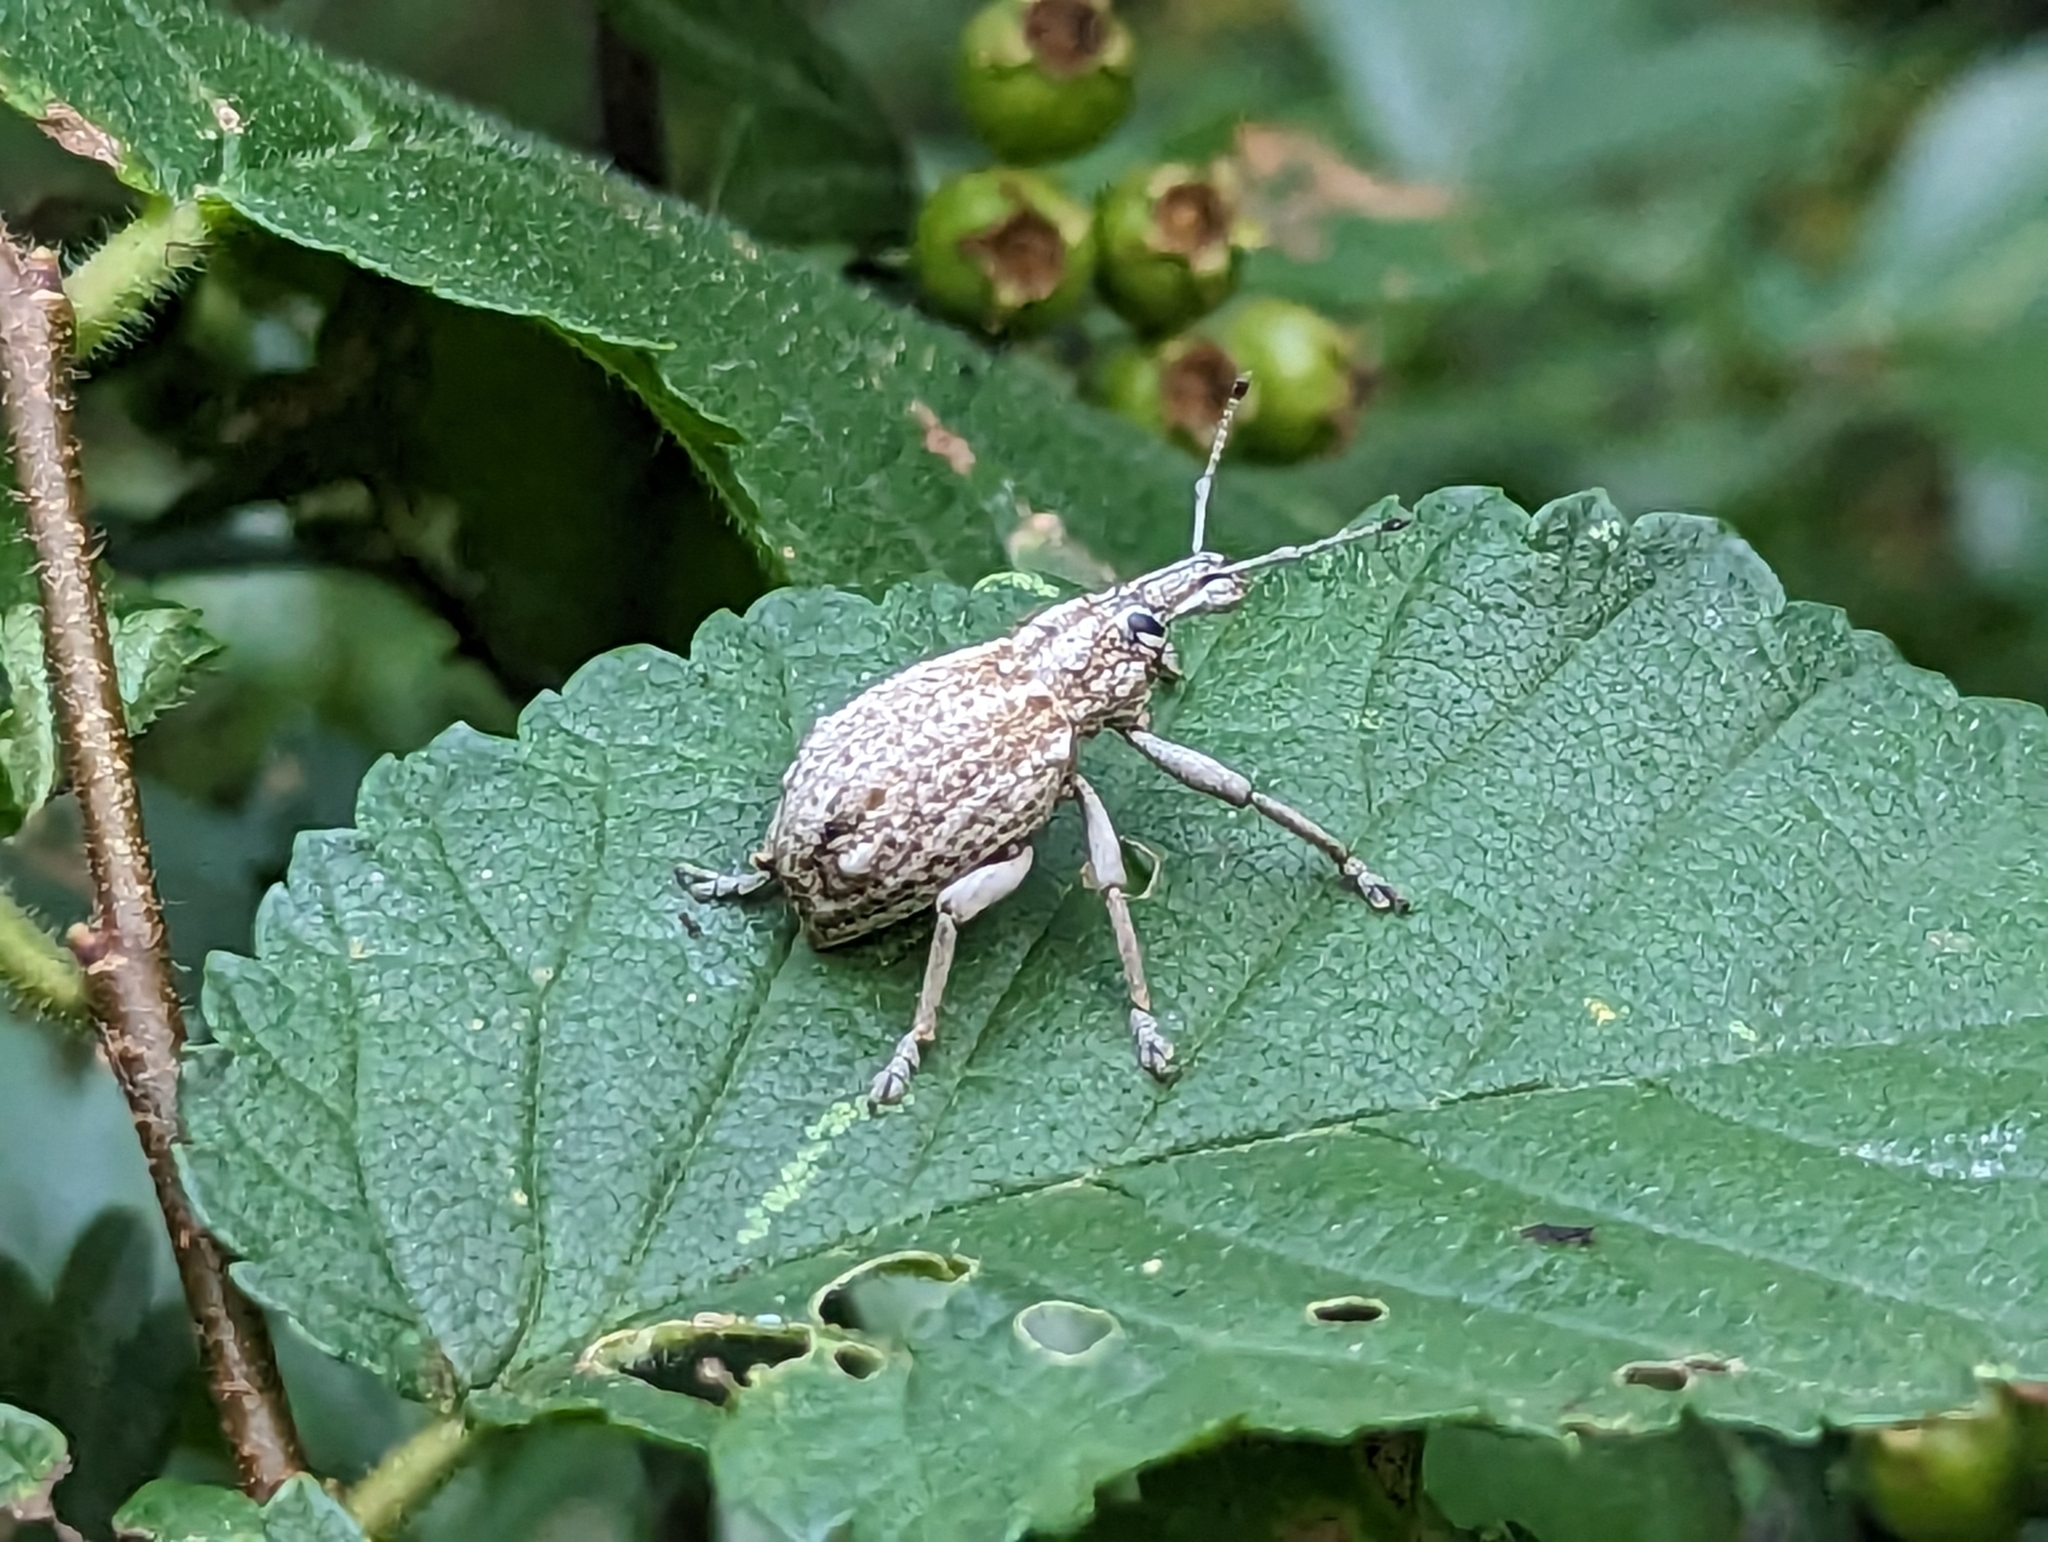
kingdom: Animalia
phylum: Arthropoda
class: Insecta
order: Coleoptera
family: Curculionidae
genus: Leptopius
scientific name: Leptopius robustus
